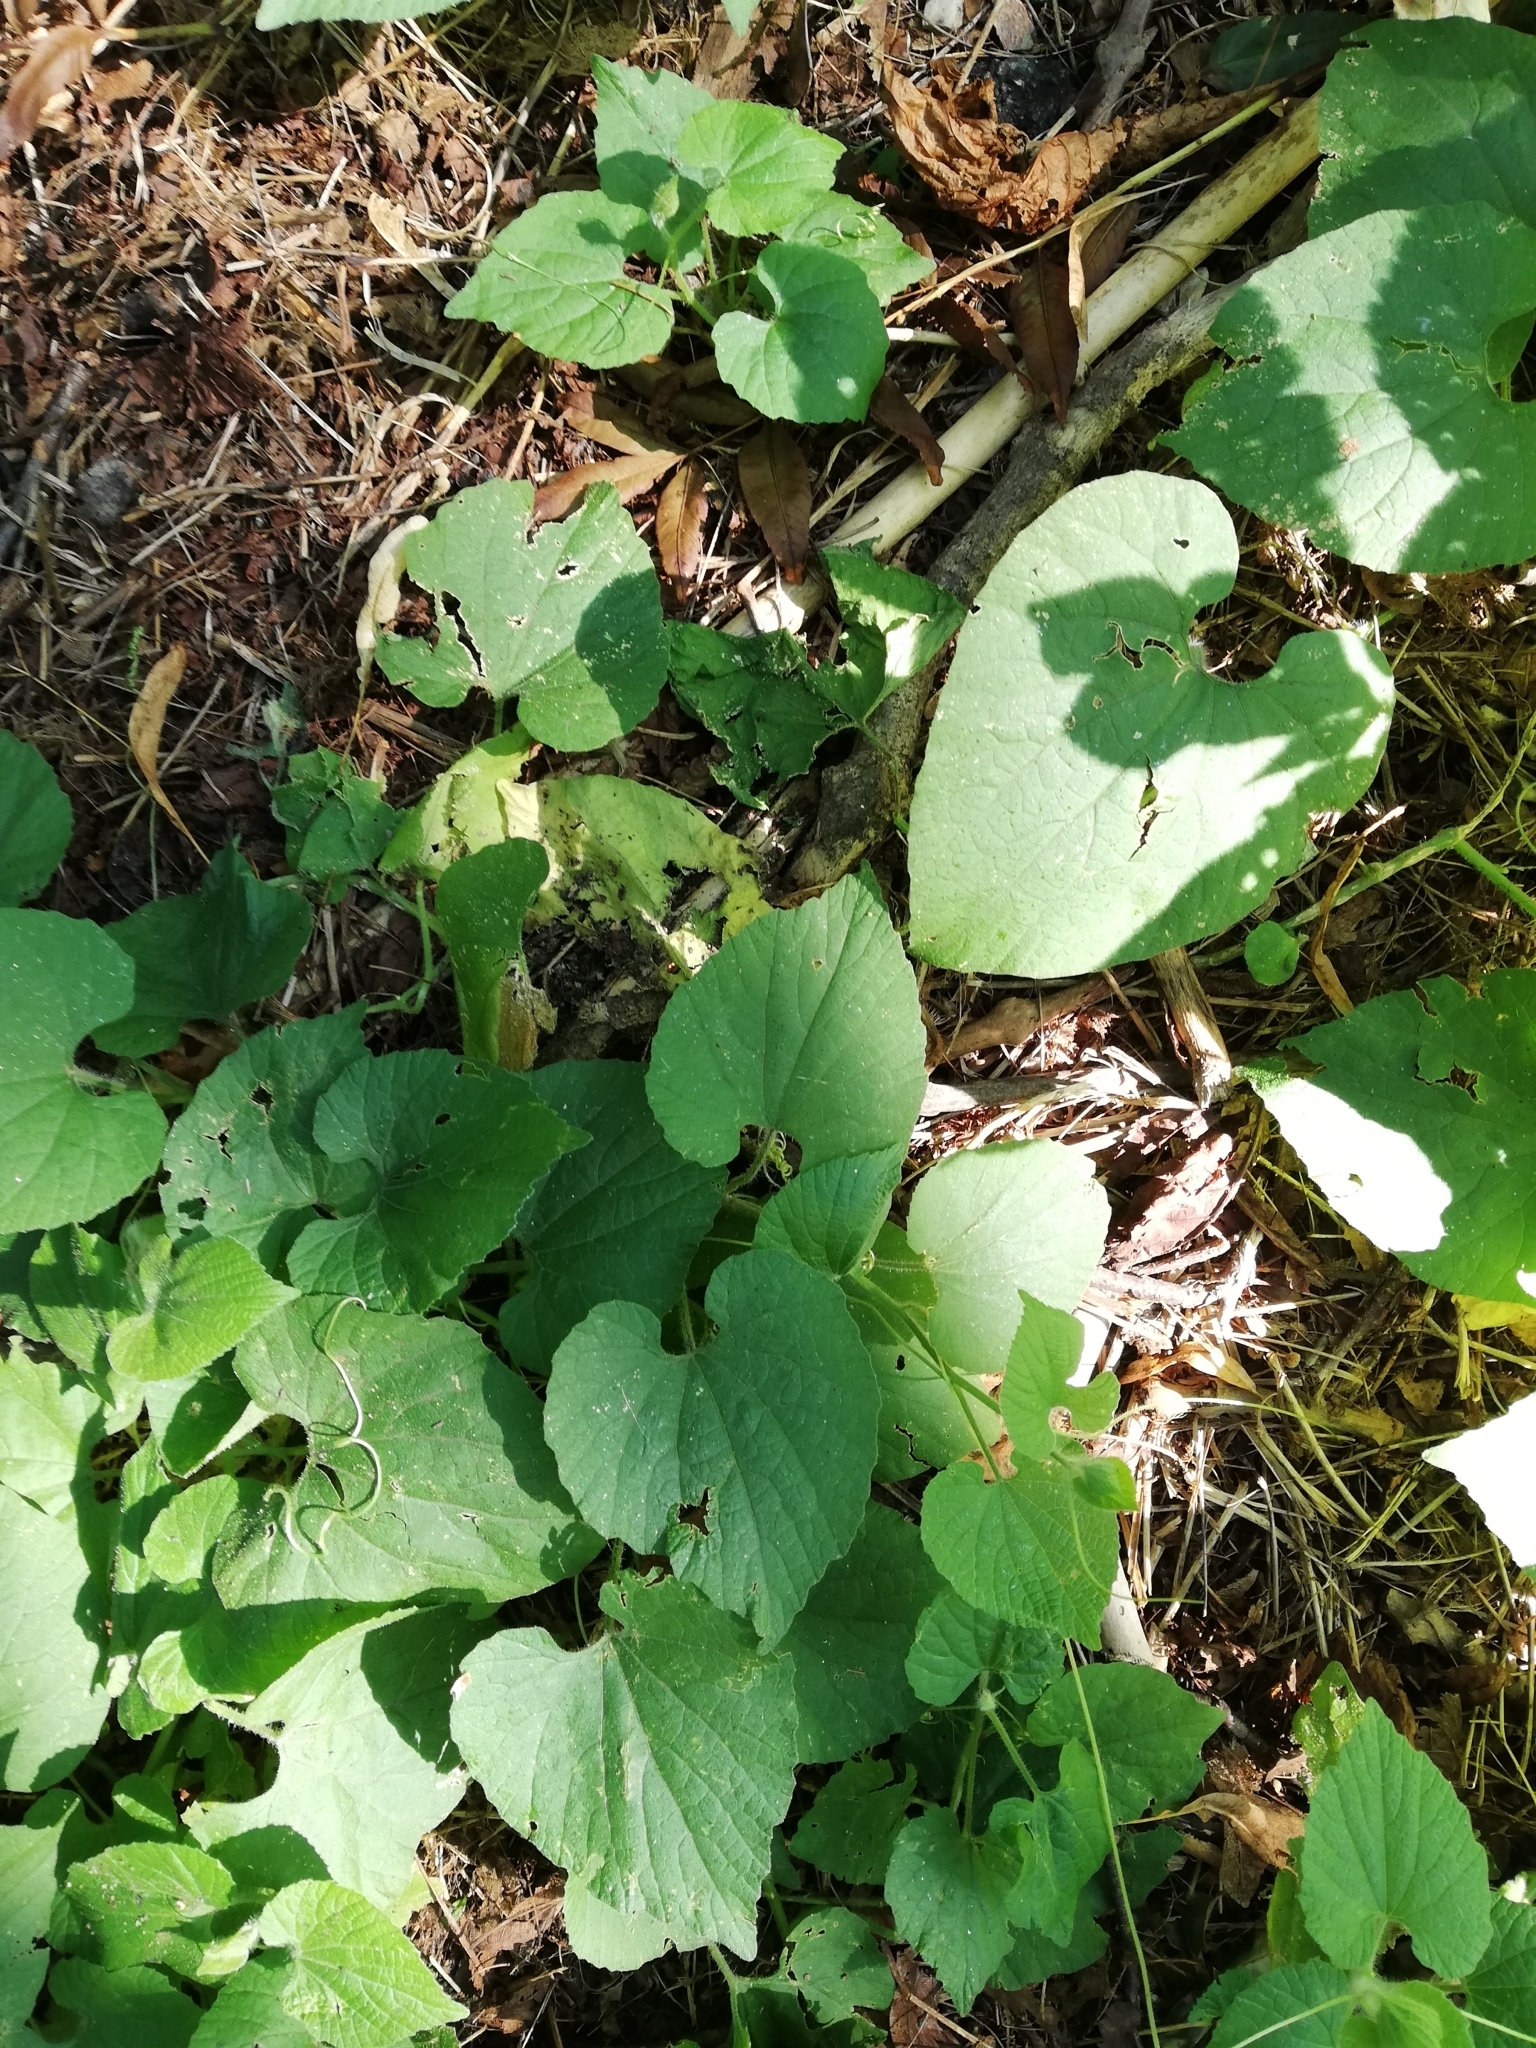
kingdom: Plantae
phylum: Tracheophyta
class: Magnoliopsida
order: Cucurbitales
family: Cucurbitaceae
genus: Thladiantha
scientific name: Thladiantha dubia
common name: Manchu tubergourd
